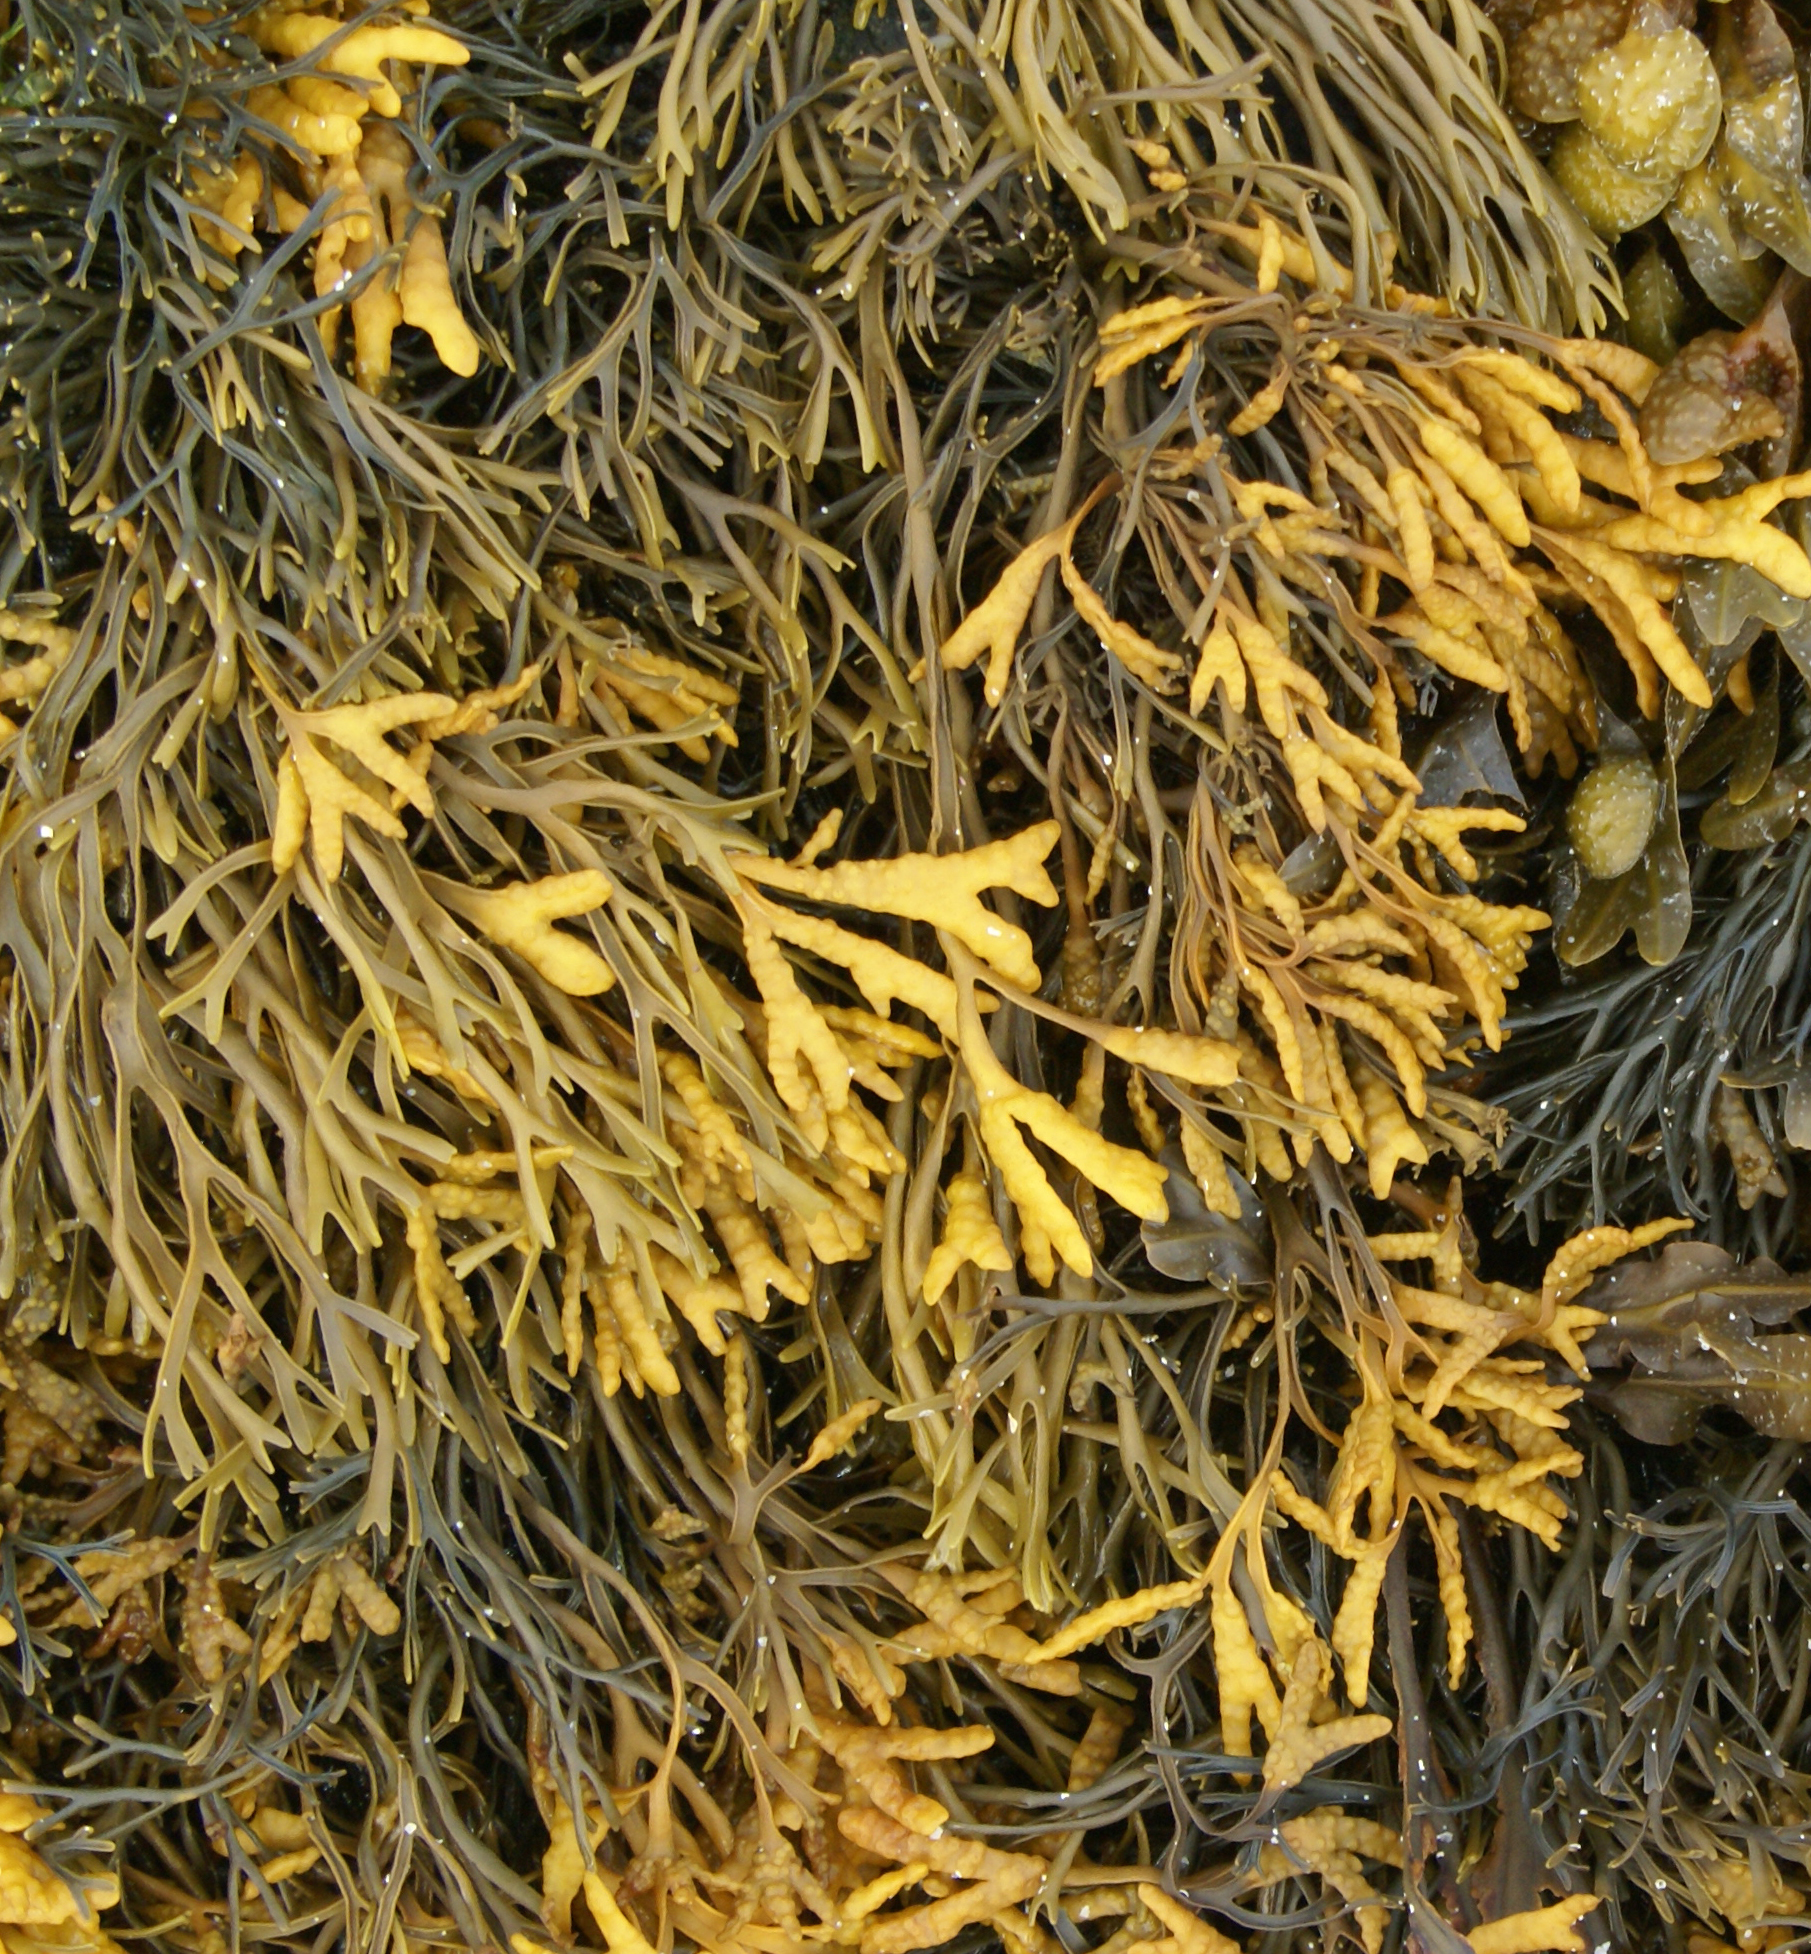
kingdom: Chromista
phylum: Ochrophyta
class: Phaeophyceae
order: Fucales
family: Fucaceae
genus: Pelvetia
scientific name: Pelvetia canaliculata
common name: Channelled wrack
